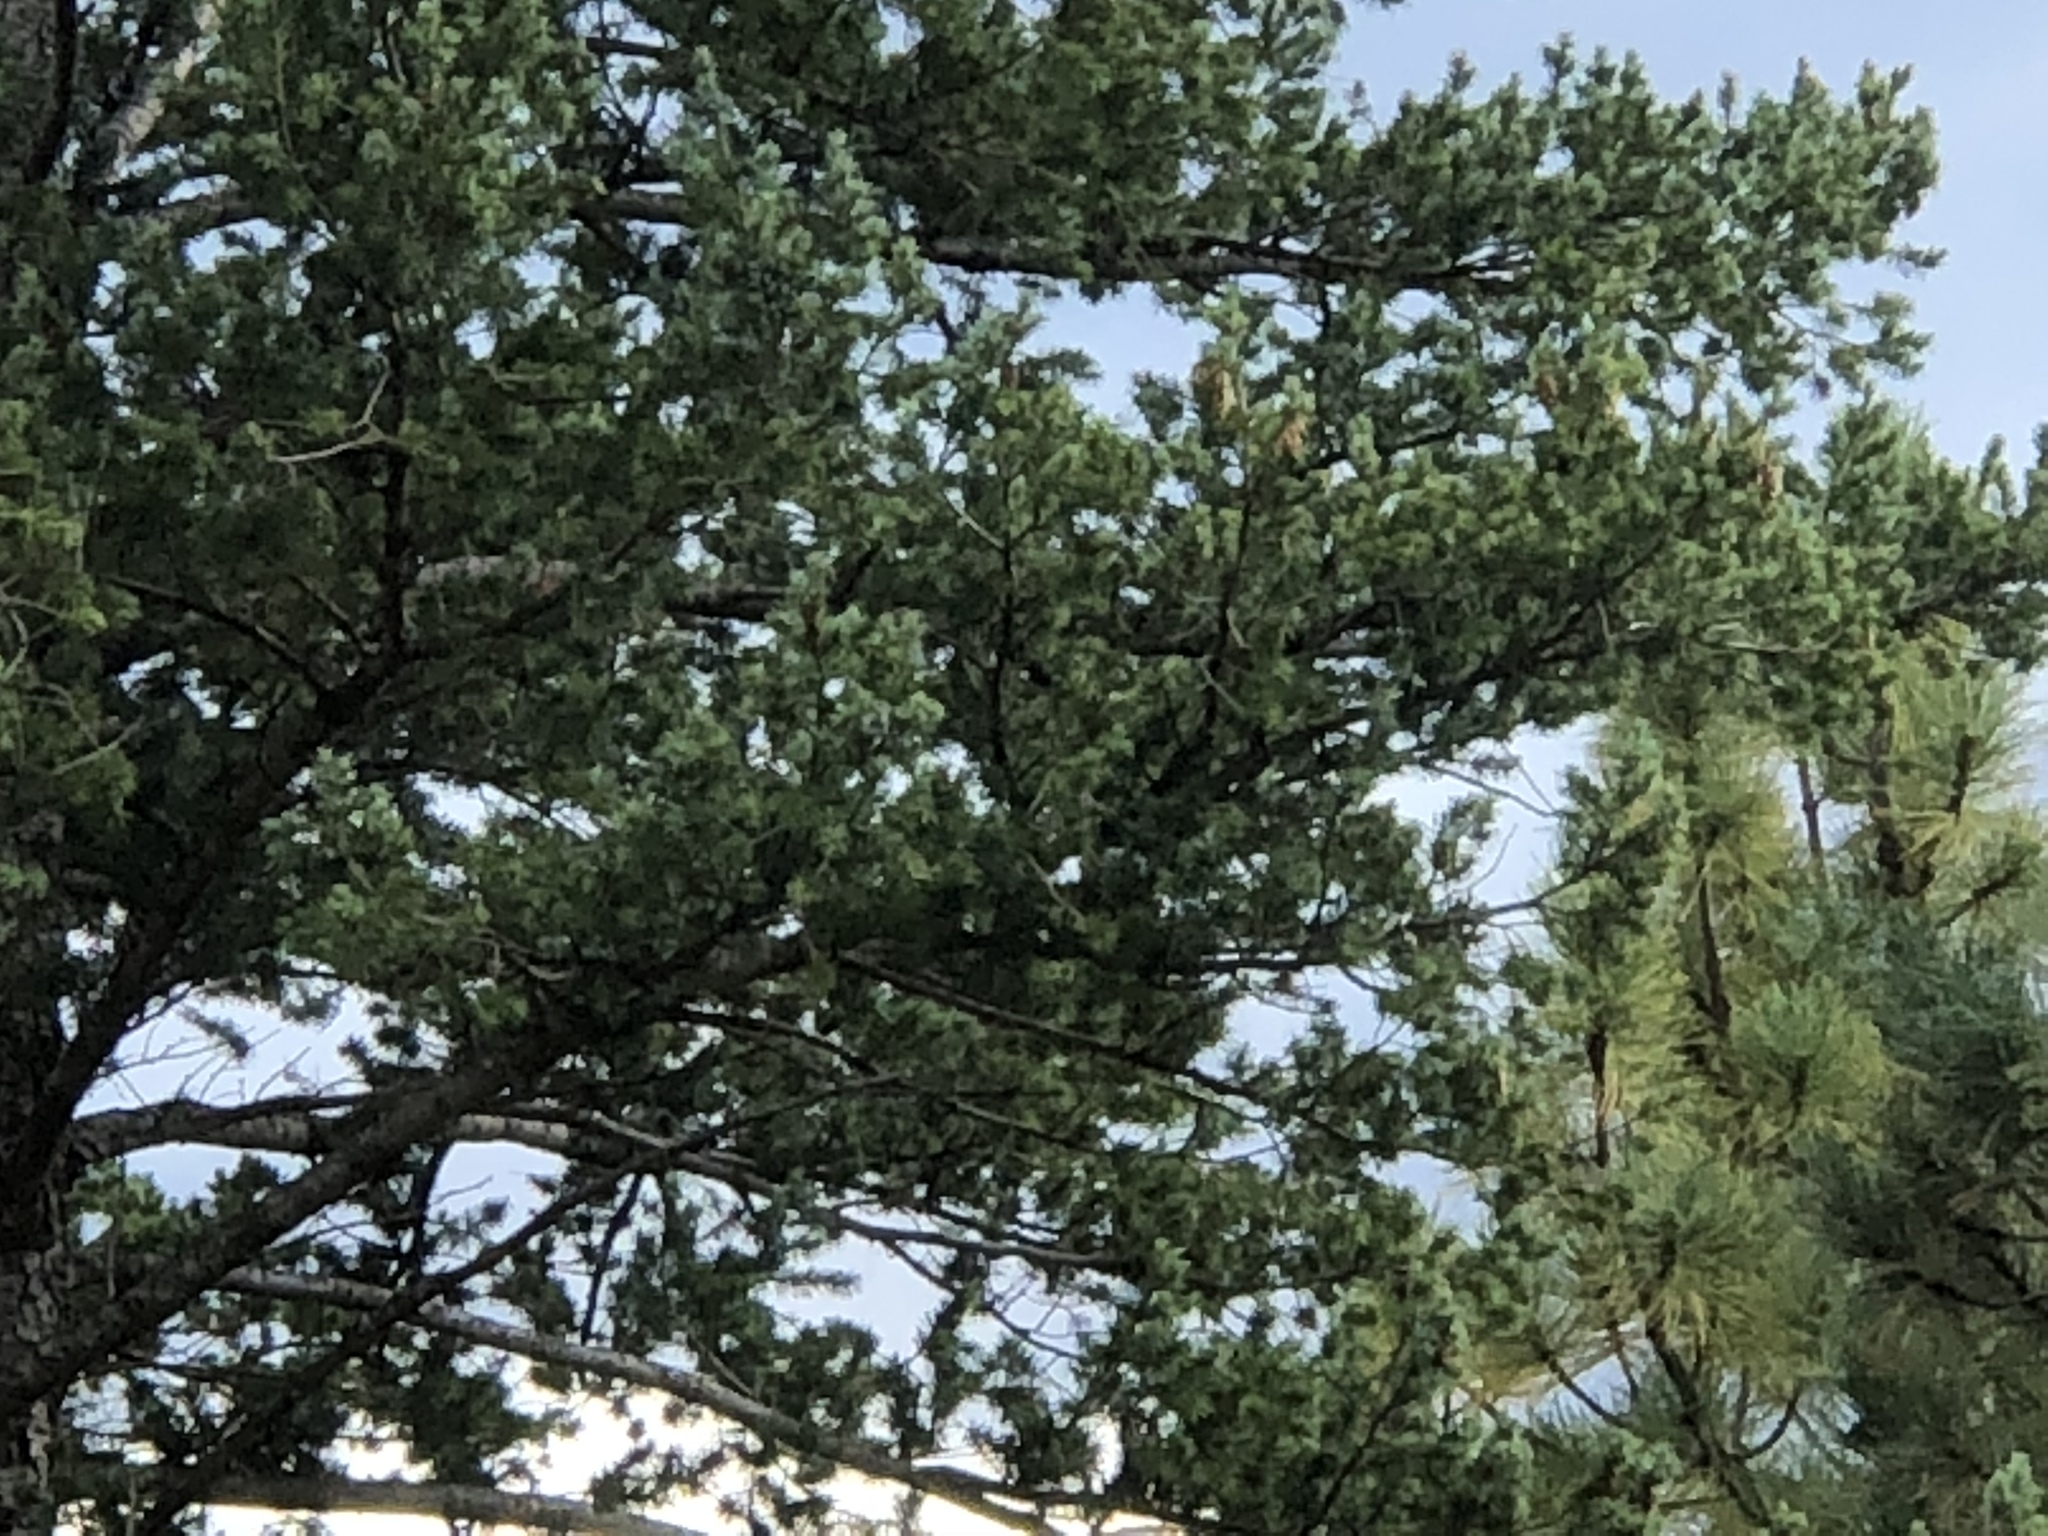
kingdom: Plantae
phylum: Tracheophyta
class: Pinopsida
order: Pinales
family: Pinaceae
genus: Pinus
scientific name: Pinus edulis
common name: Colorado pinyon
